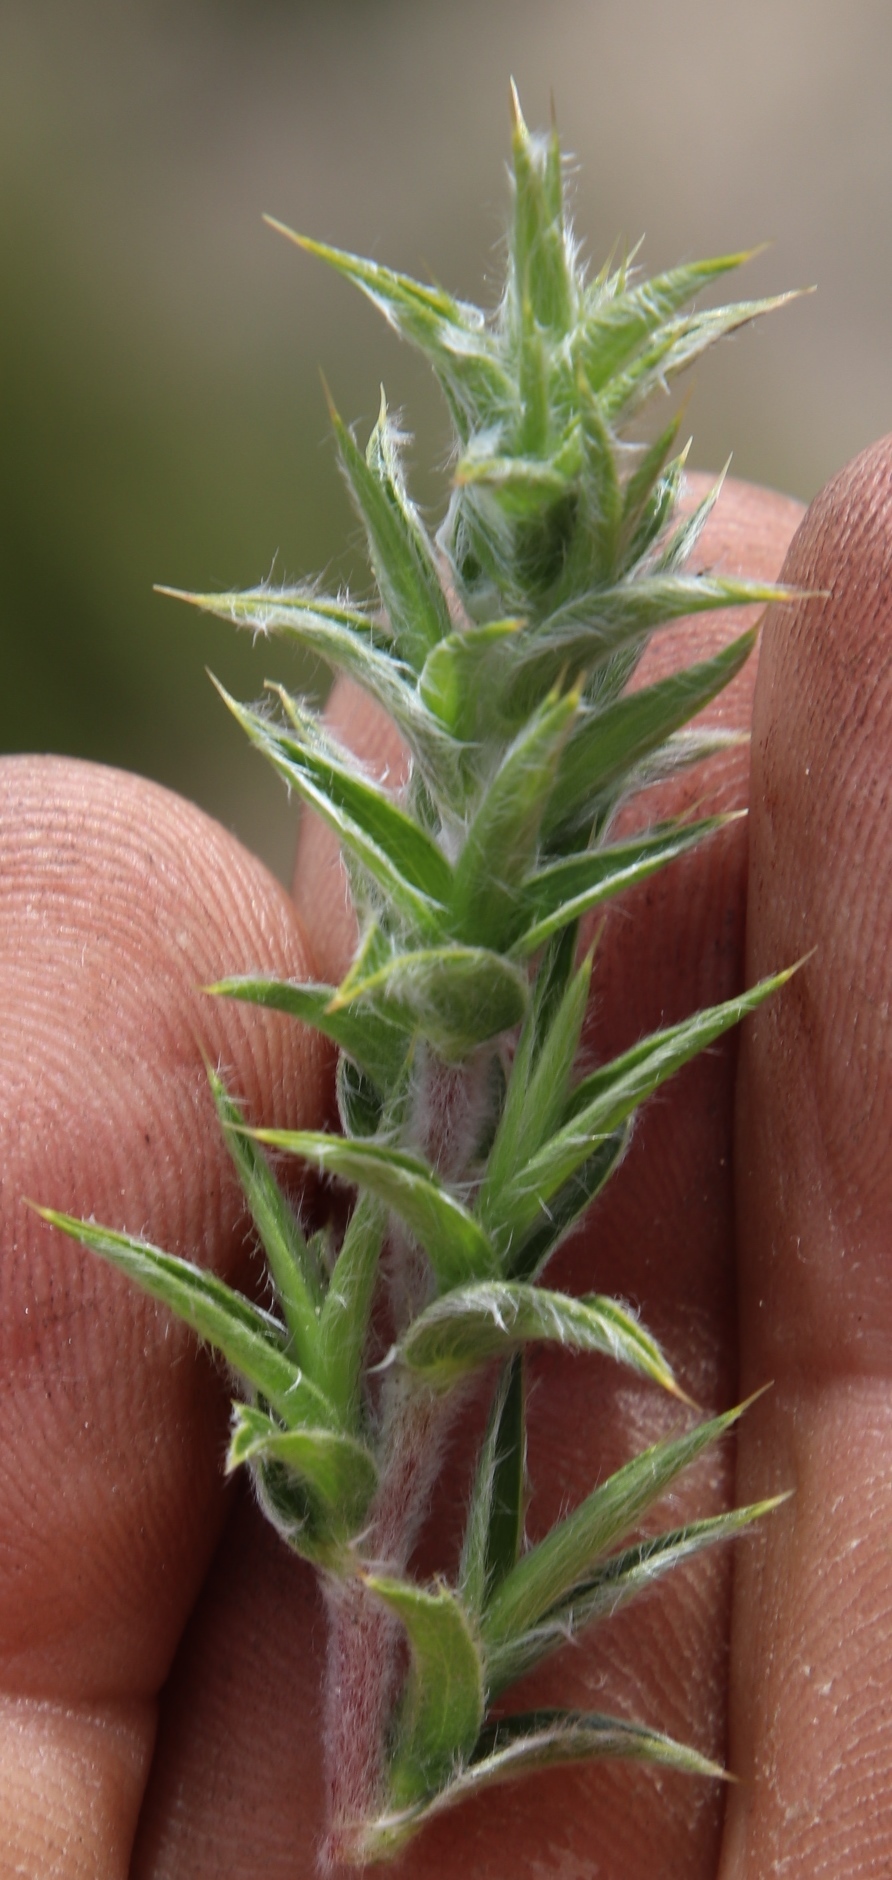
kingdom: Plantae
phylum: Tracheophyta
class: Magnoliopsida
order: Rosales
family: Rosaceae
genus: Cliffortia
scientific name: Cliffortia ruscifolia
